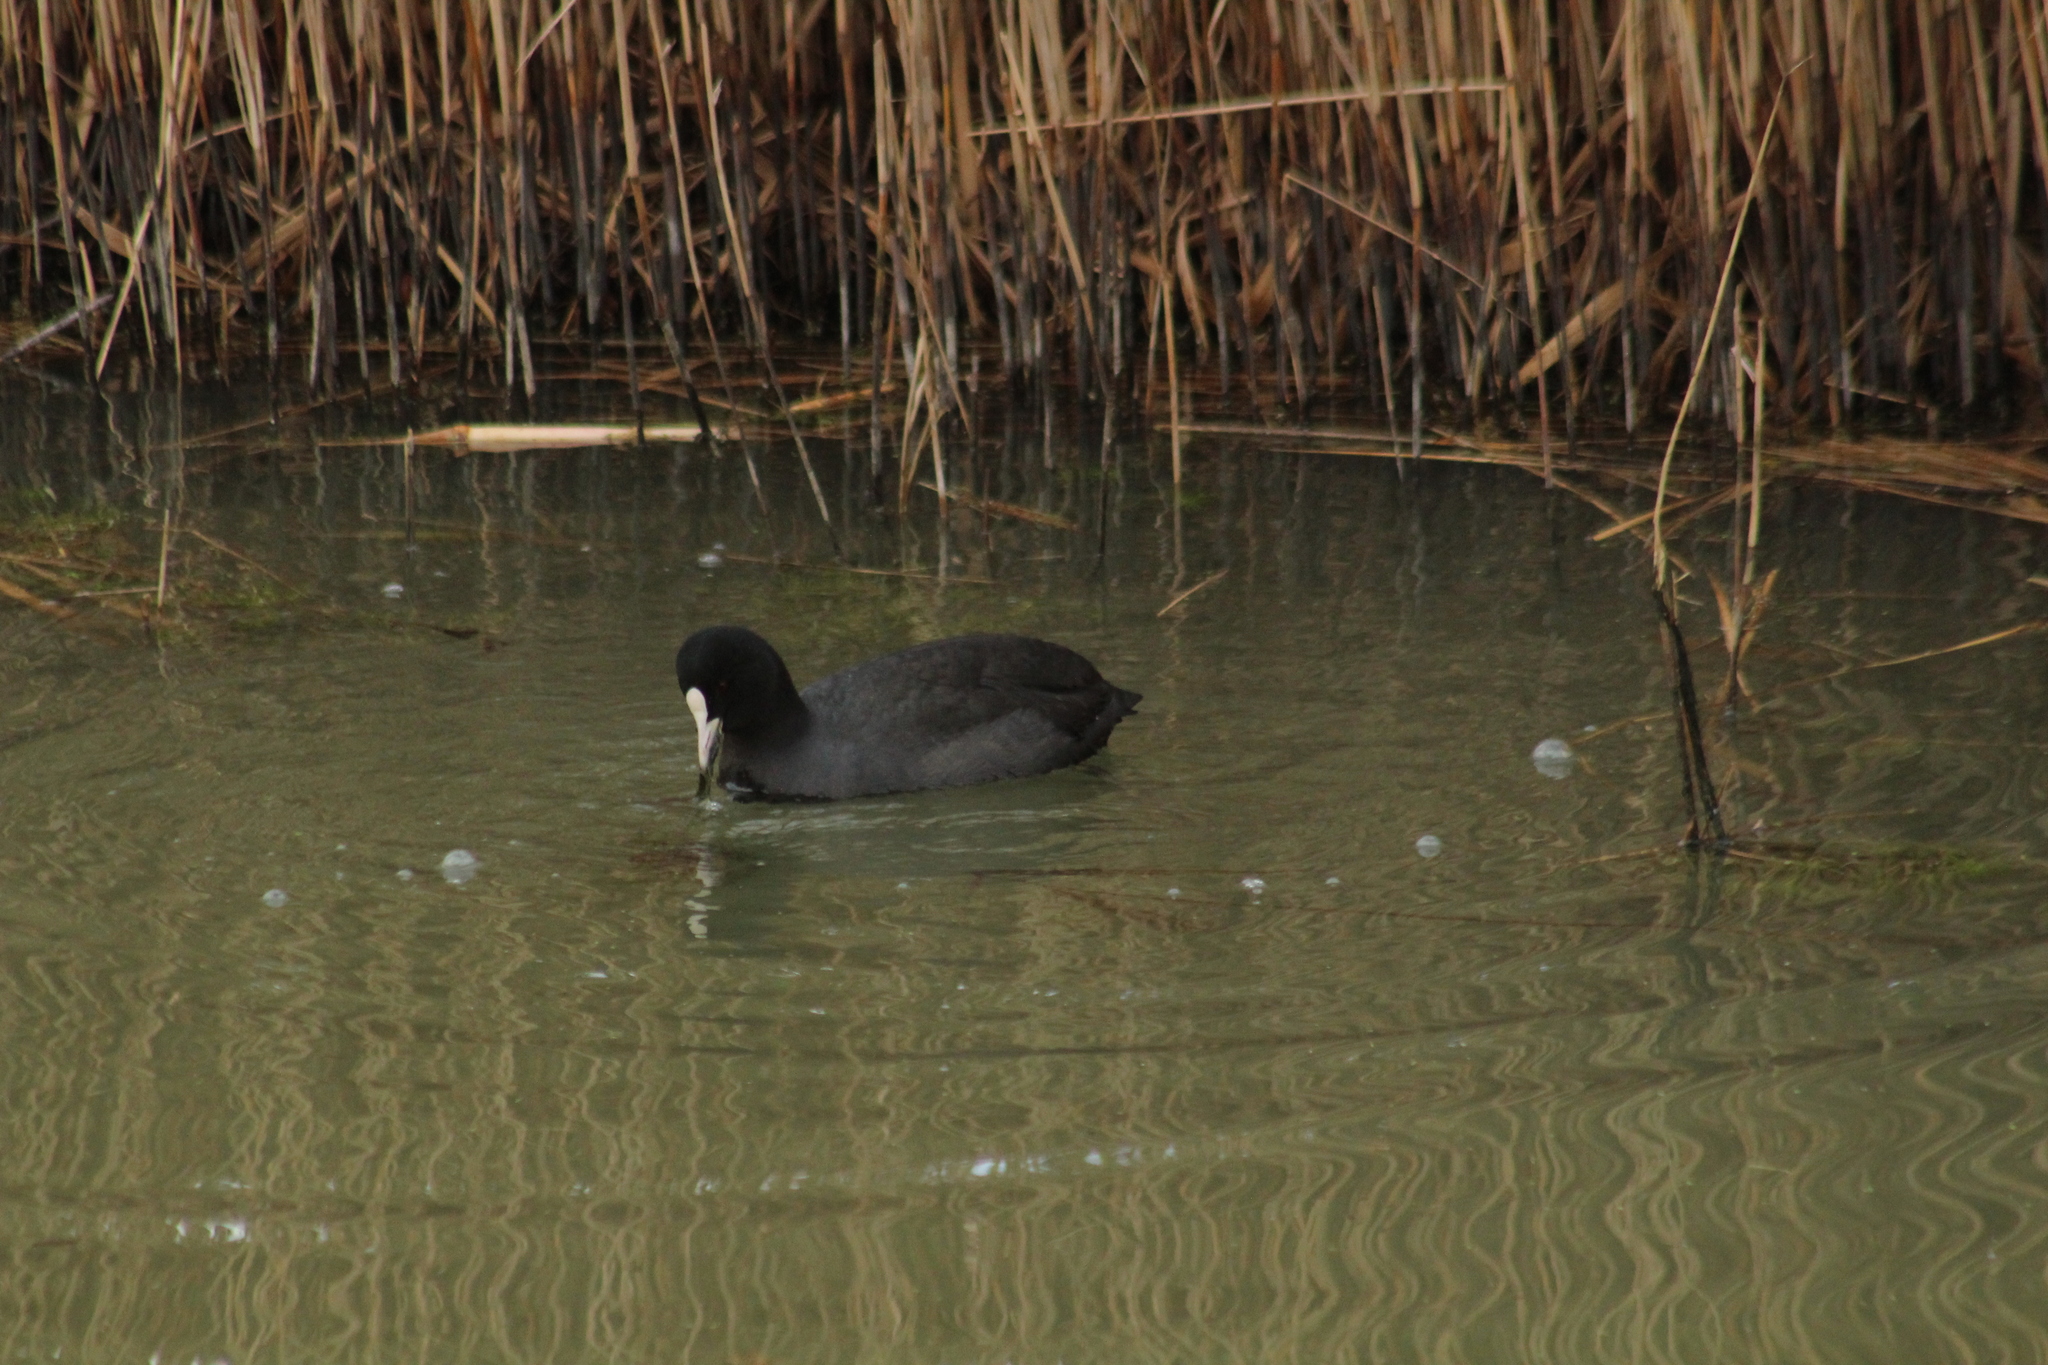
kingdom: Animalia
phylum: Chordata
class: Aves
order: Gruiformes
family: Rallidae
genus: Fulica
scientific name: Fulica atra
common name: Eurasian coot
